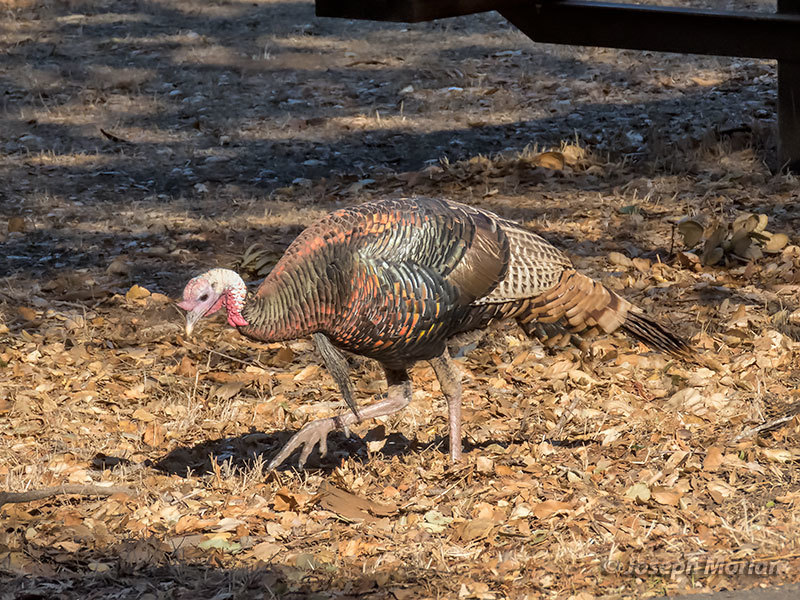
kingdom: Animalia
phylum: Chordata
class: Aves
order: Galliformes
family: Phasianidae
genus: Meleagris
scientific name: Meleagris gallopavo
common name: Wild turkey
